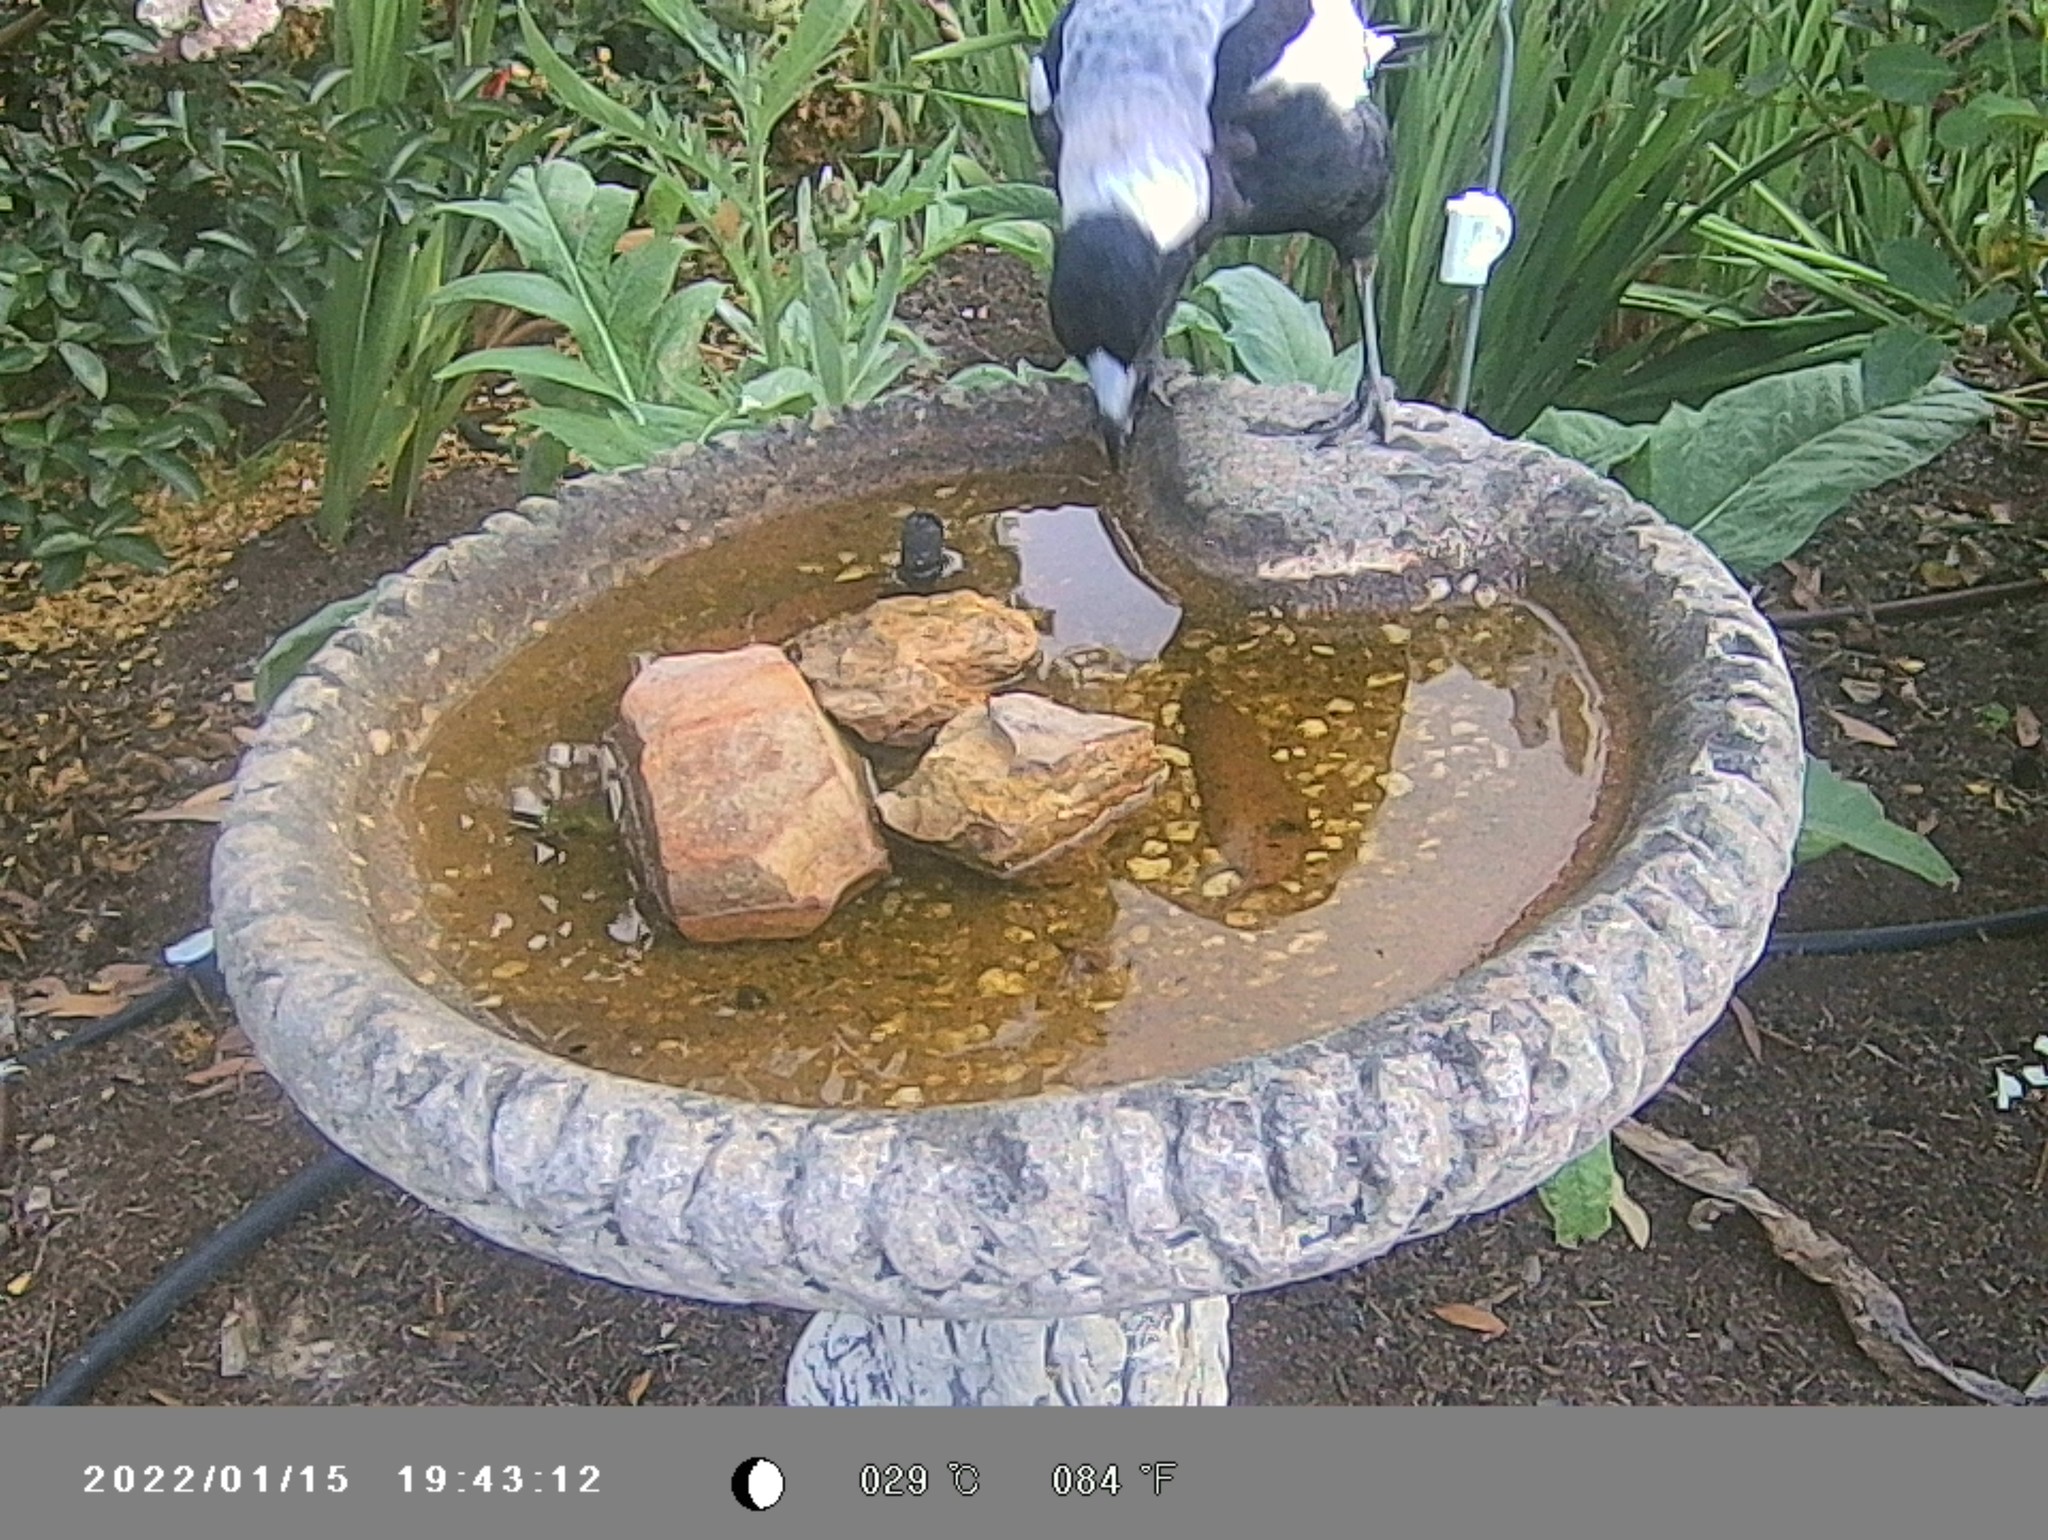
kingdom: Animalia
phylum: Chordata
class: Aves
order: Passeriformes
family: Cracticidae
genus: Gymnorhina
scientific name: Gymnorhina tibicen
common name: Australian magpie
